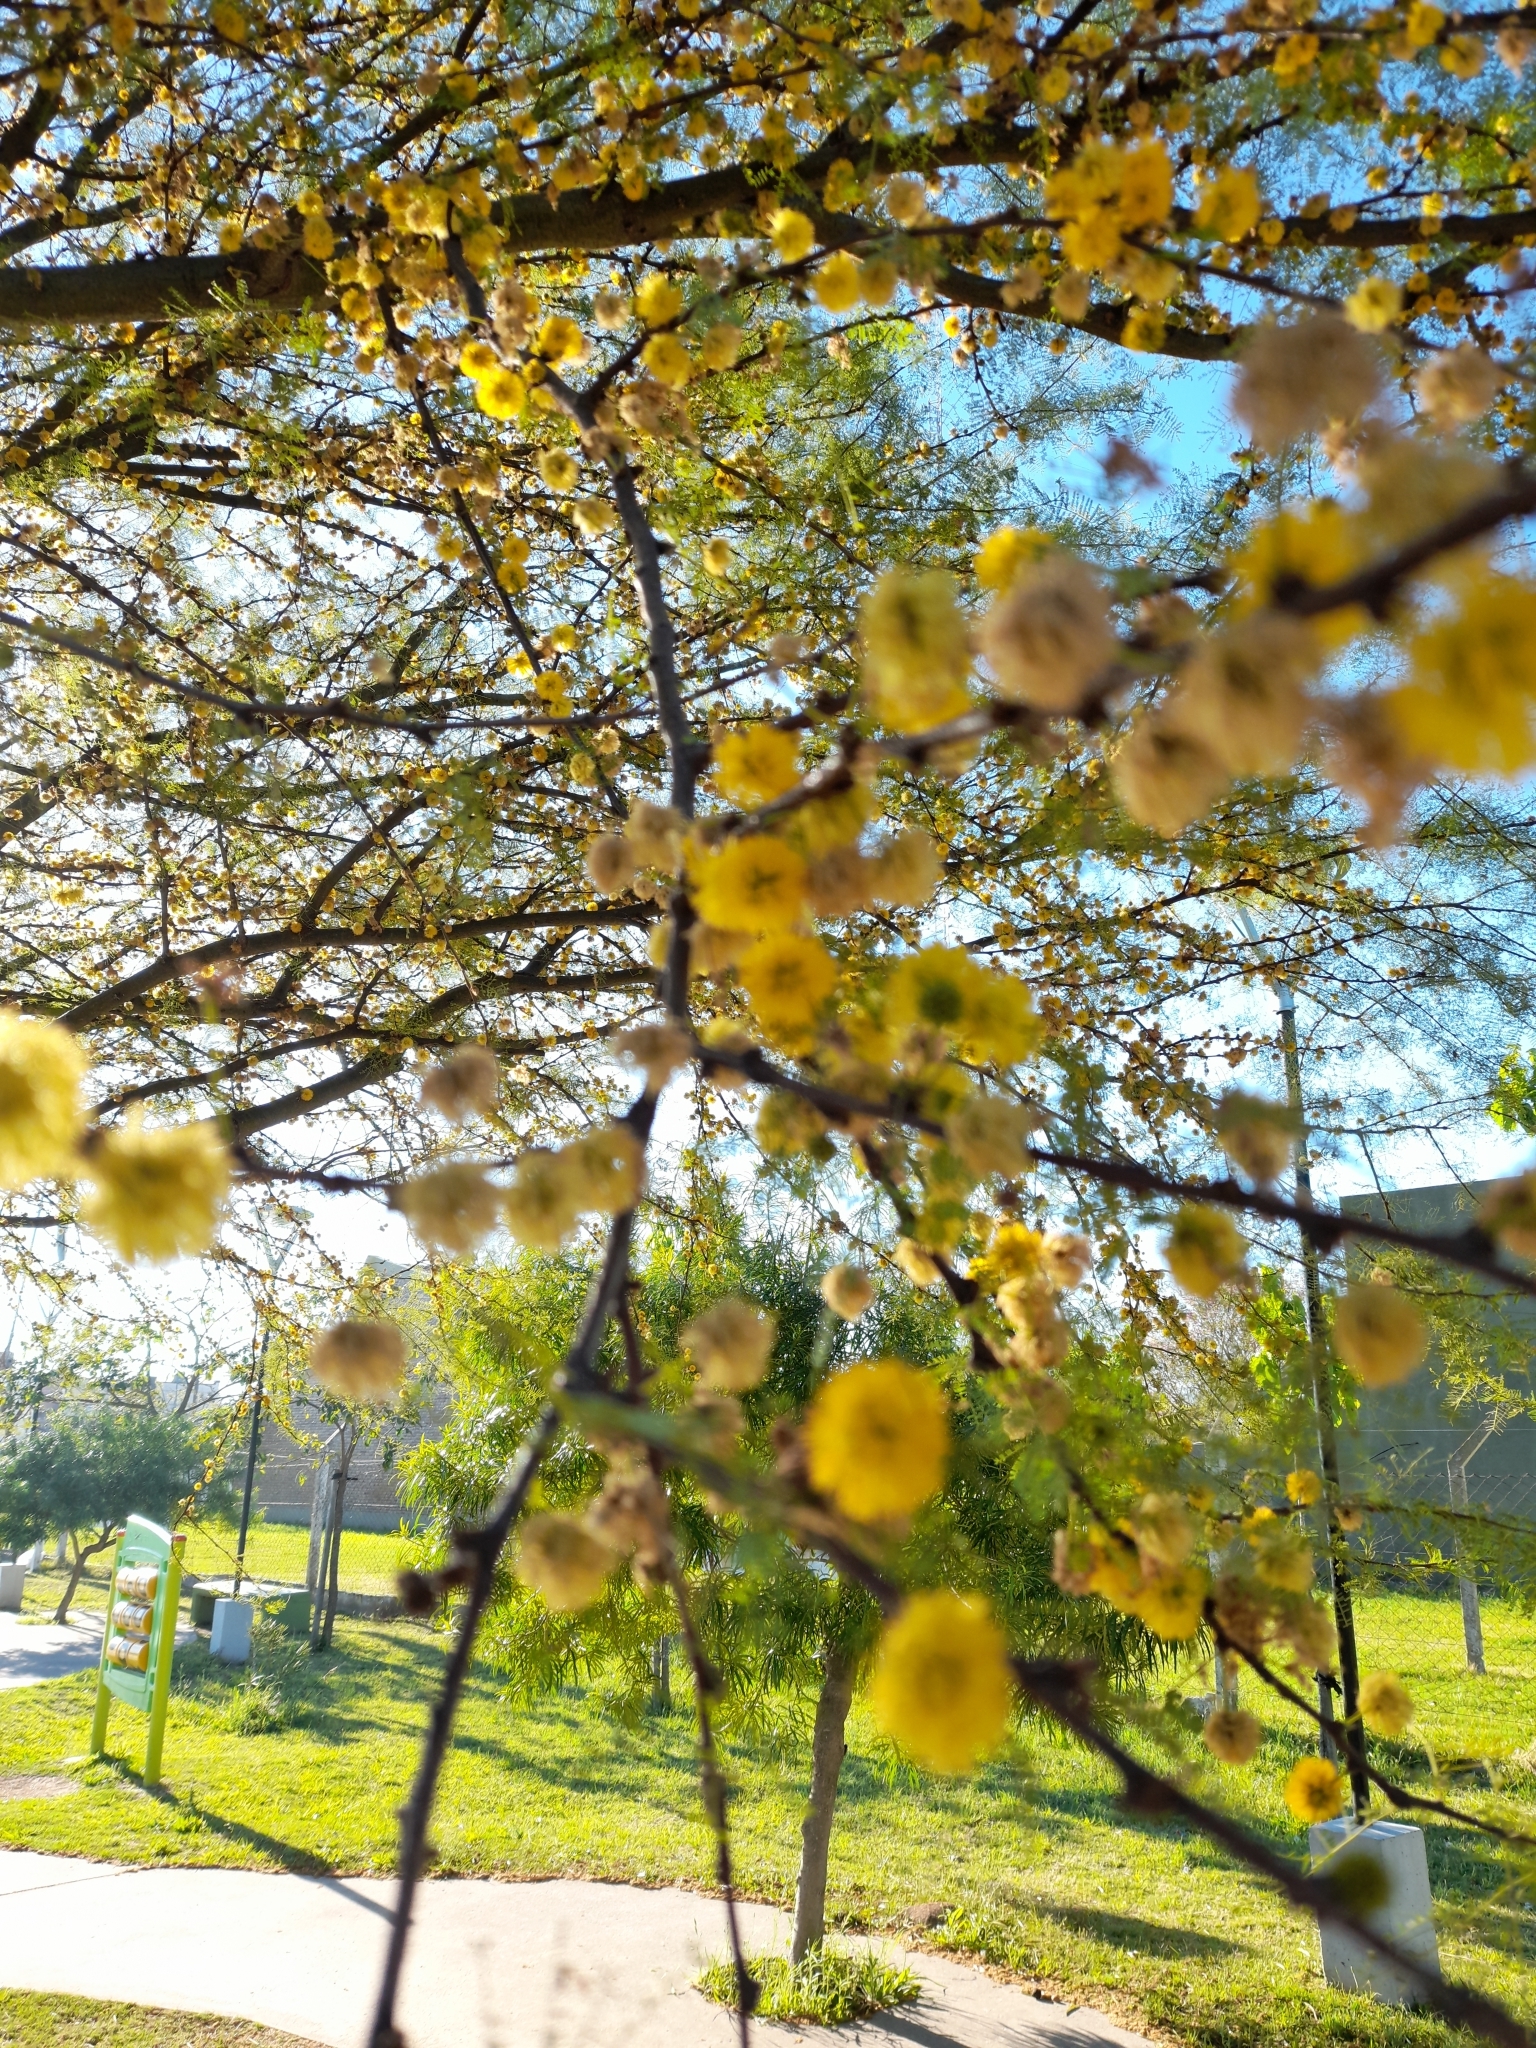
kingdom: Plantae
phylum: Tracheophyta
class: Magnoliopsida
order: Fabales
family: Fabaceae
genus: Vachellia
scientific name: Vachellia caven
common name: Roman cassie
